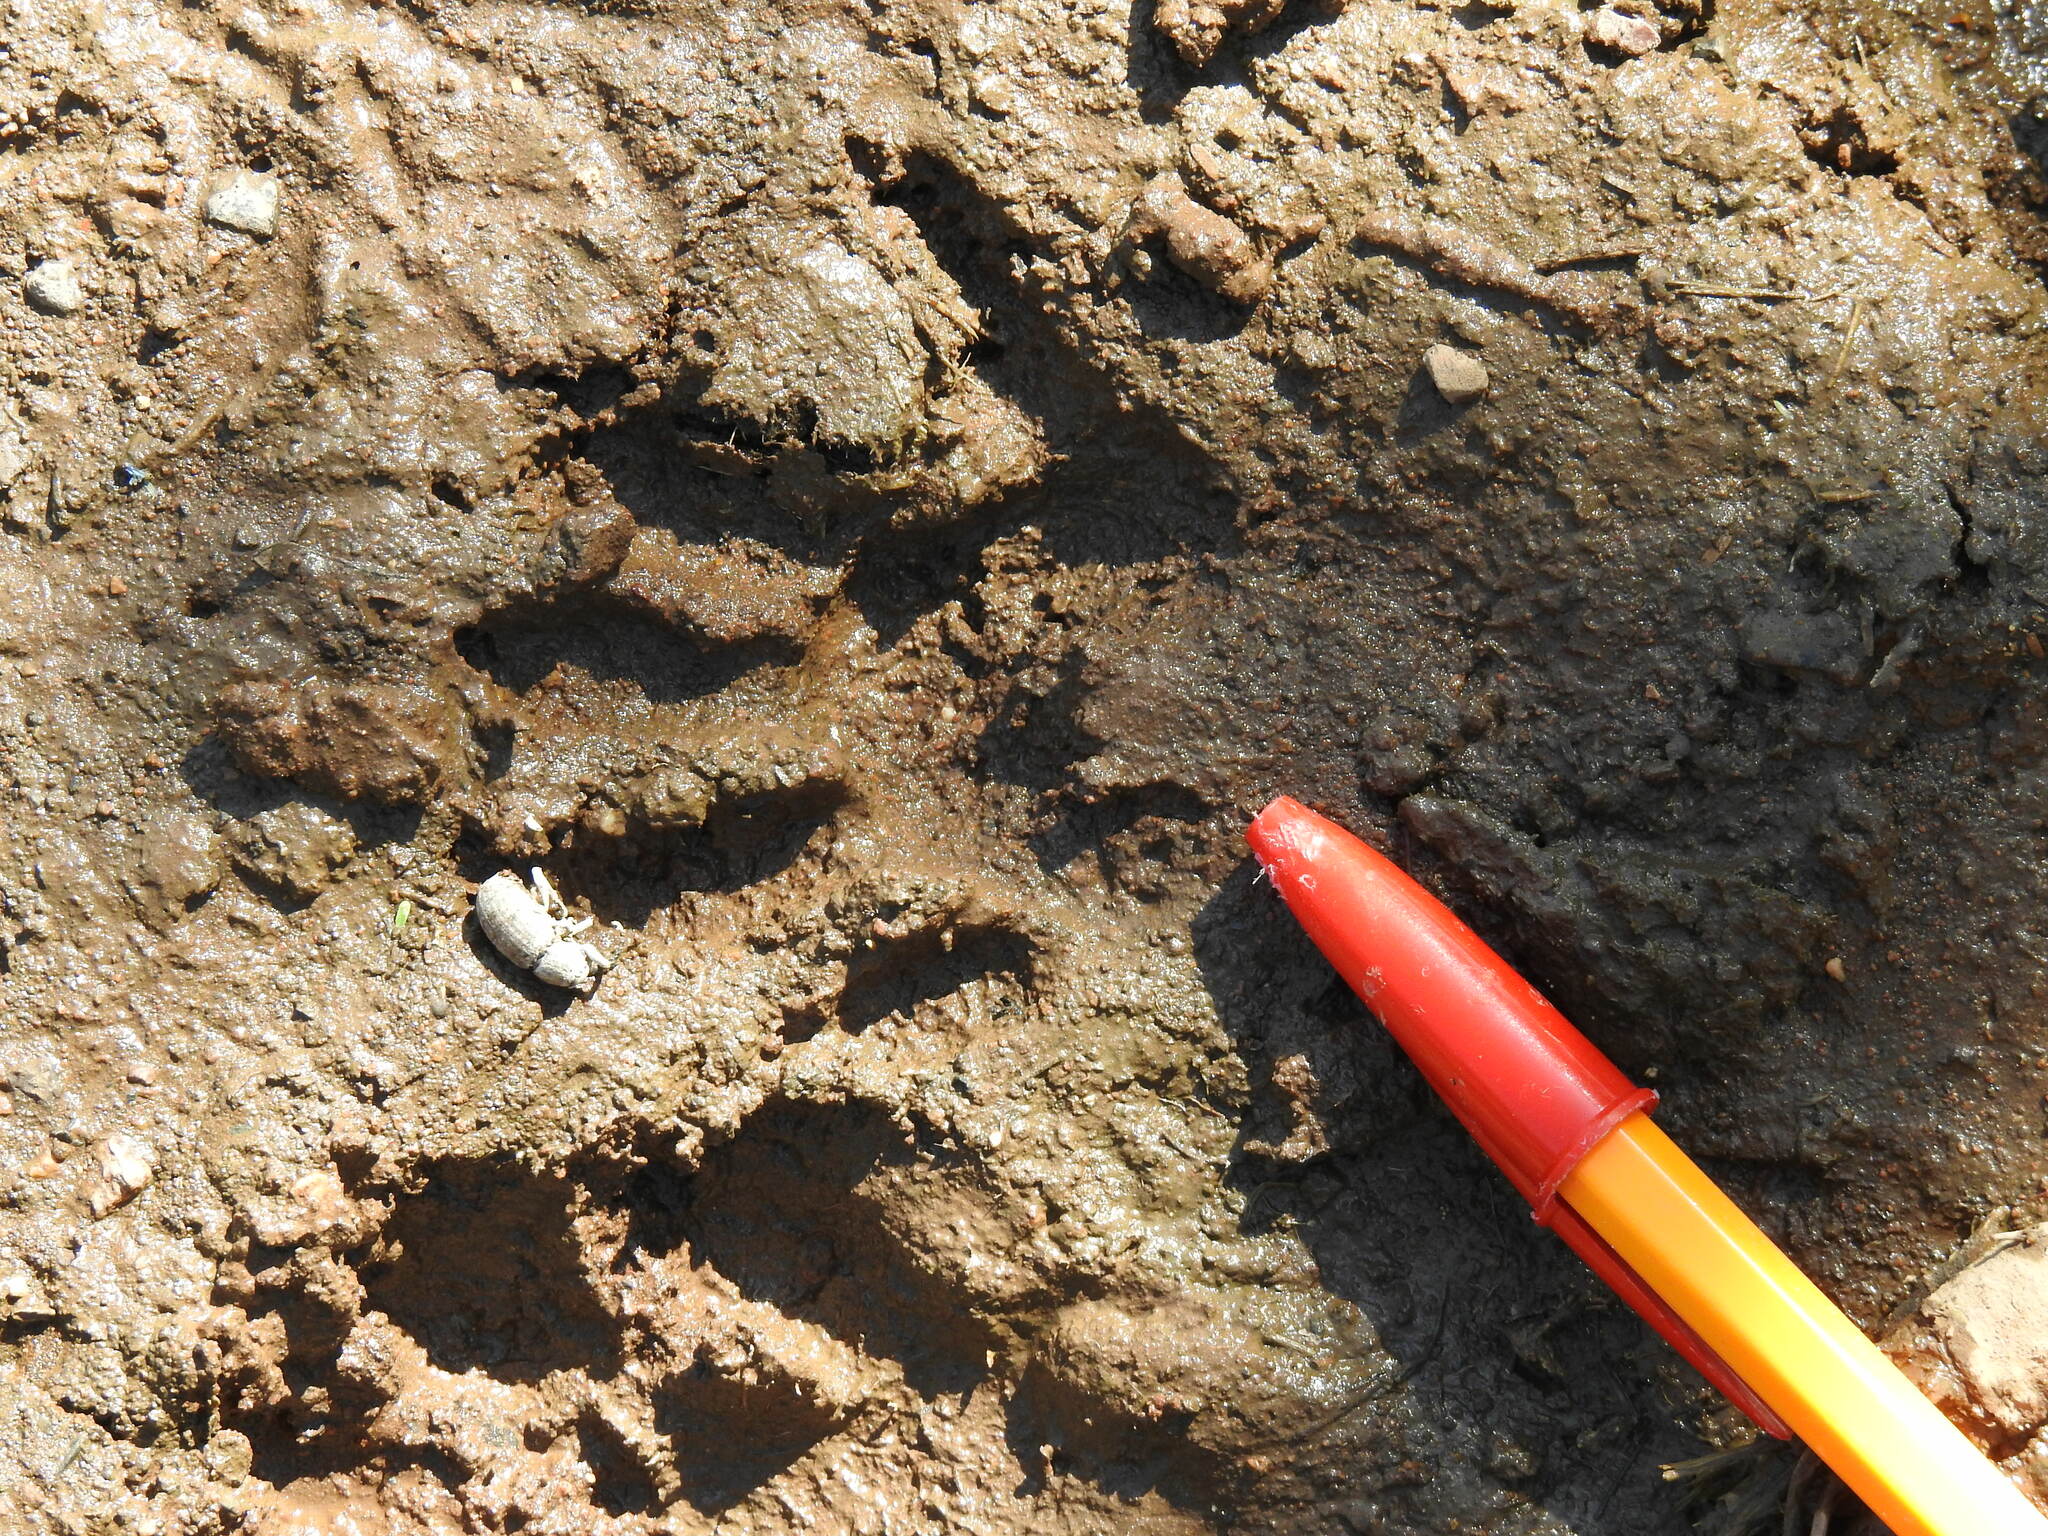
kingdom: Animalia
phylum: Chordata
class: Mammalia
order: Carnivora
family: Procyonidae
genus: Procyon
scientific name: Procyon lotor
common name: Raccoon
